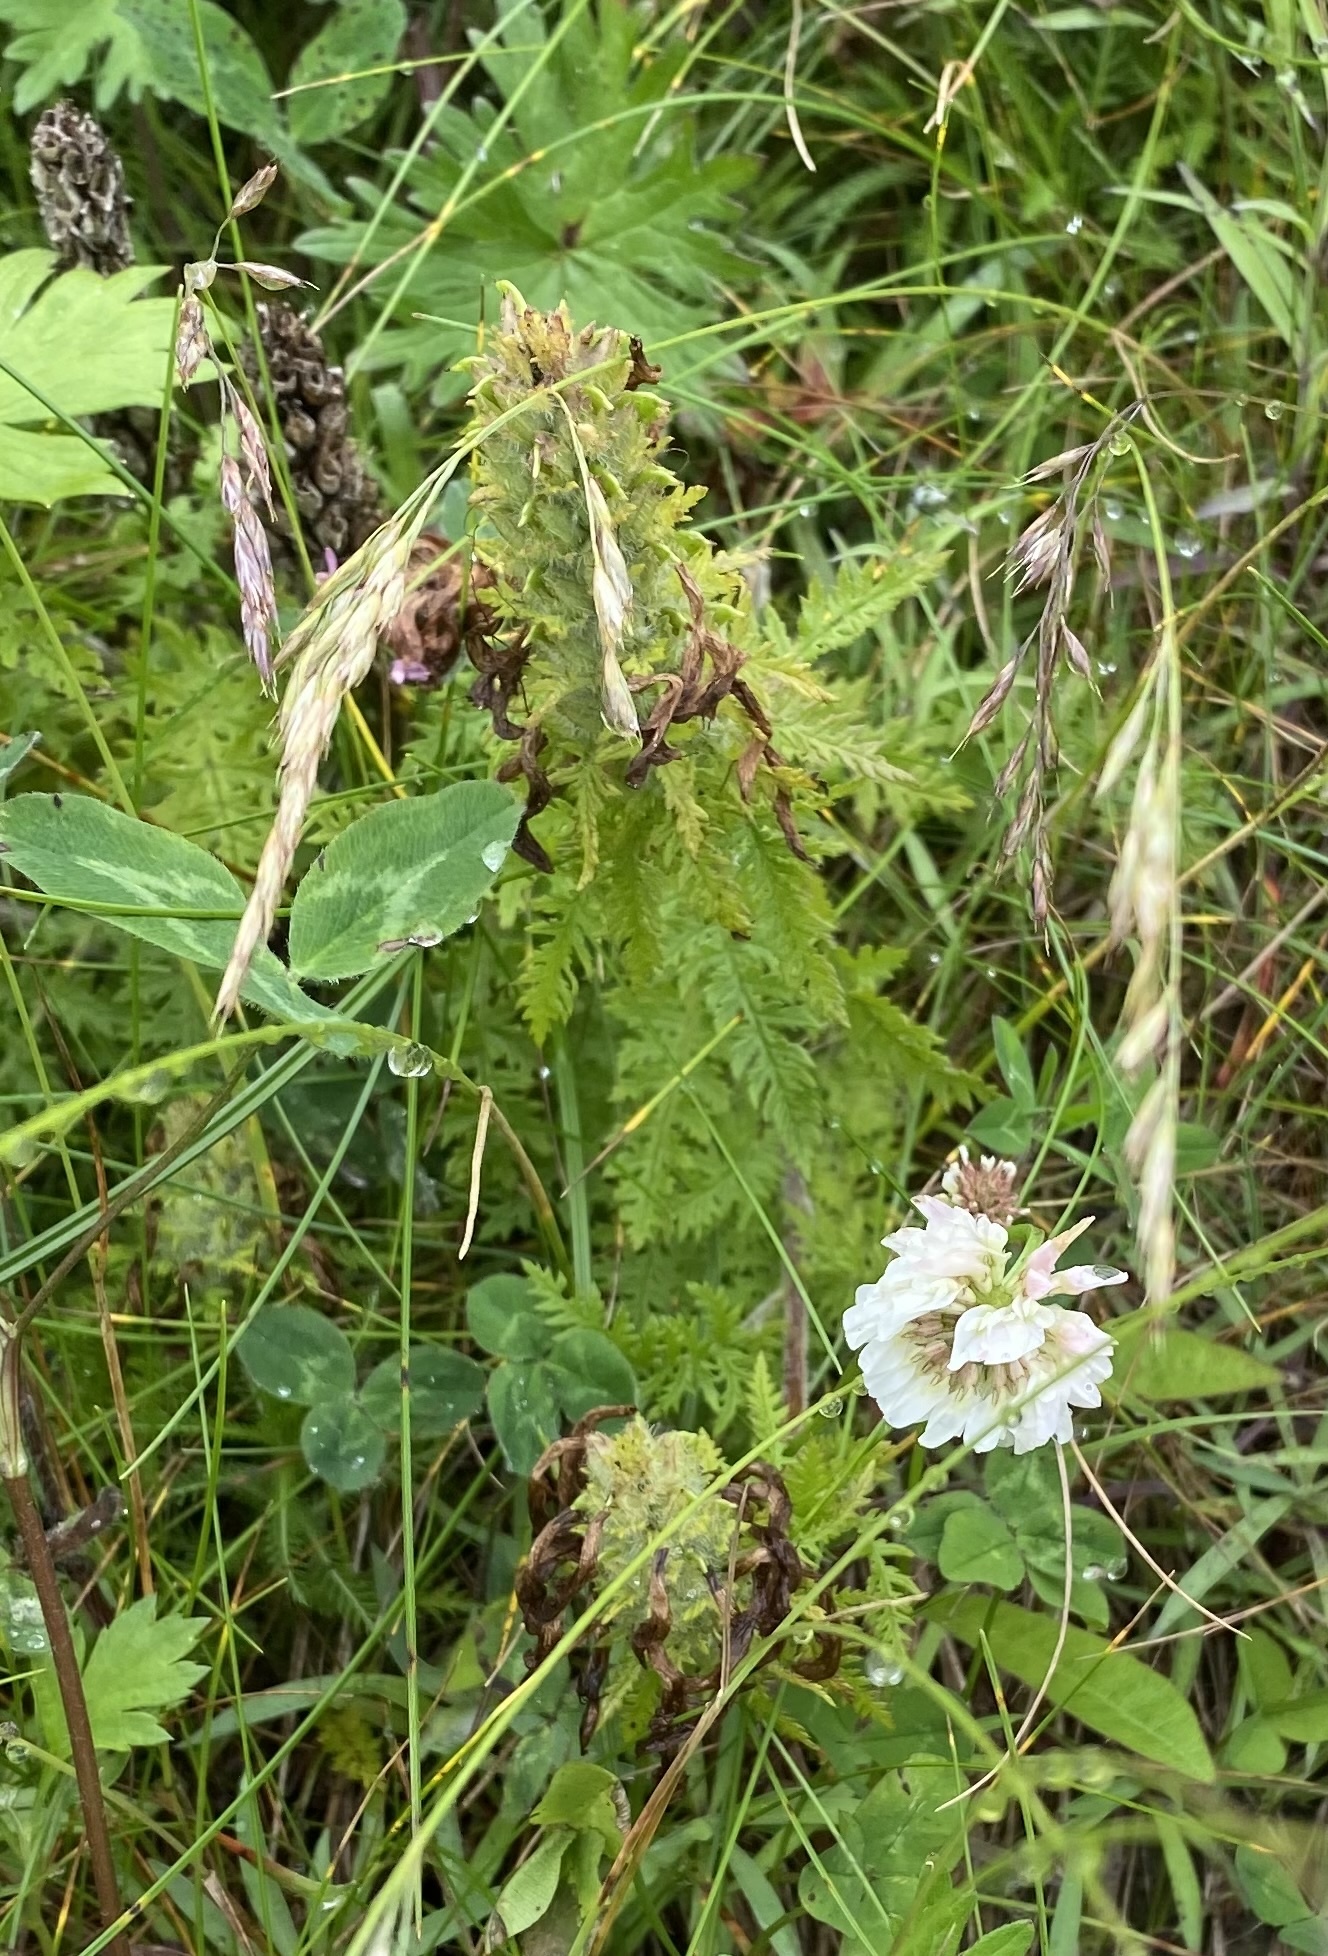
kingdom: Plantae
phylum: Tracheophyta
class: Magnoliopsida
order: Lamiales
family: Orobanchaceae
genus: Pedicularis
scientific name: Pedicularis chamissonis
